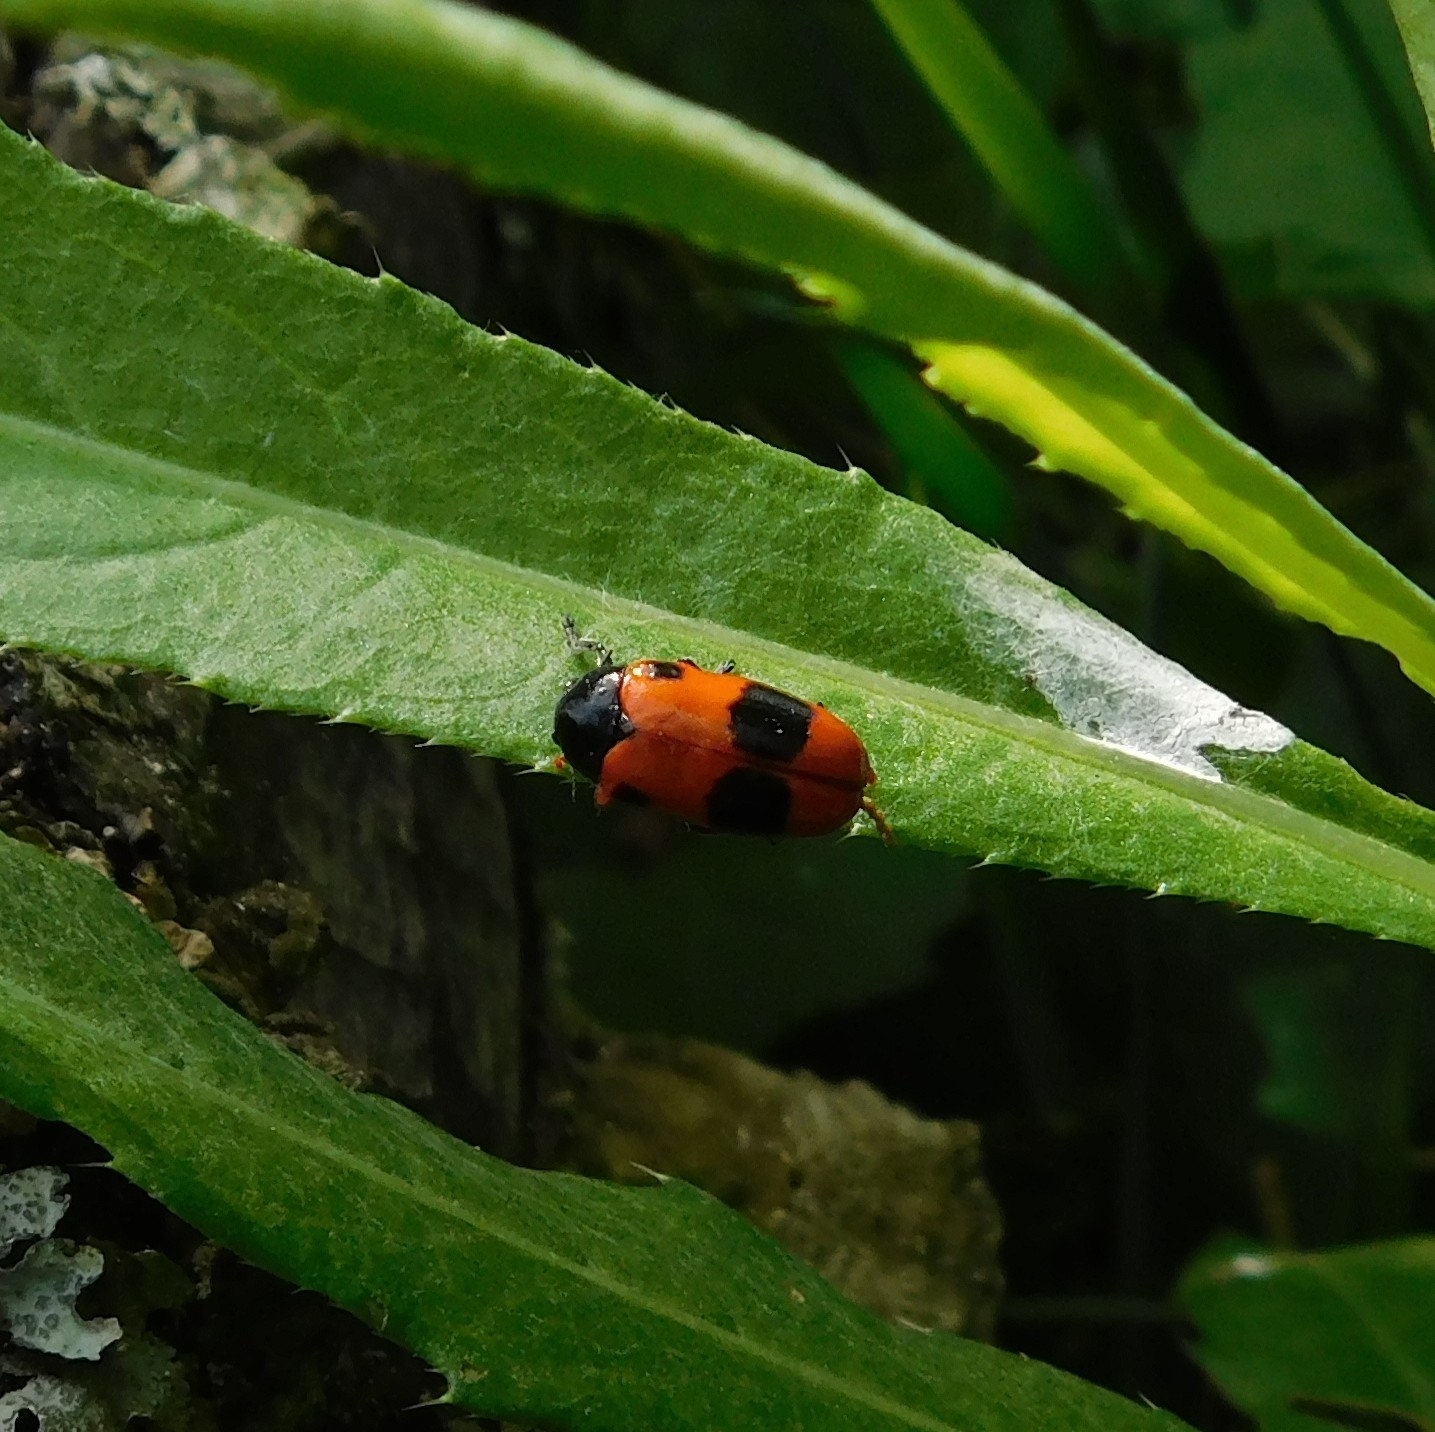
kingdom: Animalia
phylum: Arthropoda
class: Insecta
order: Coleoptera
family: Chrysomelidae
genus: Clytra
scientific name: Clytra laeviuscula
